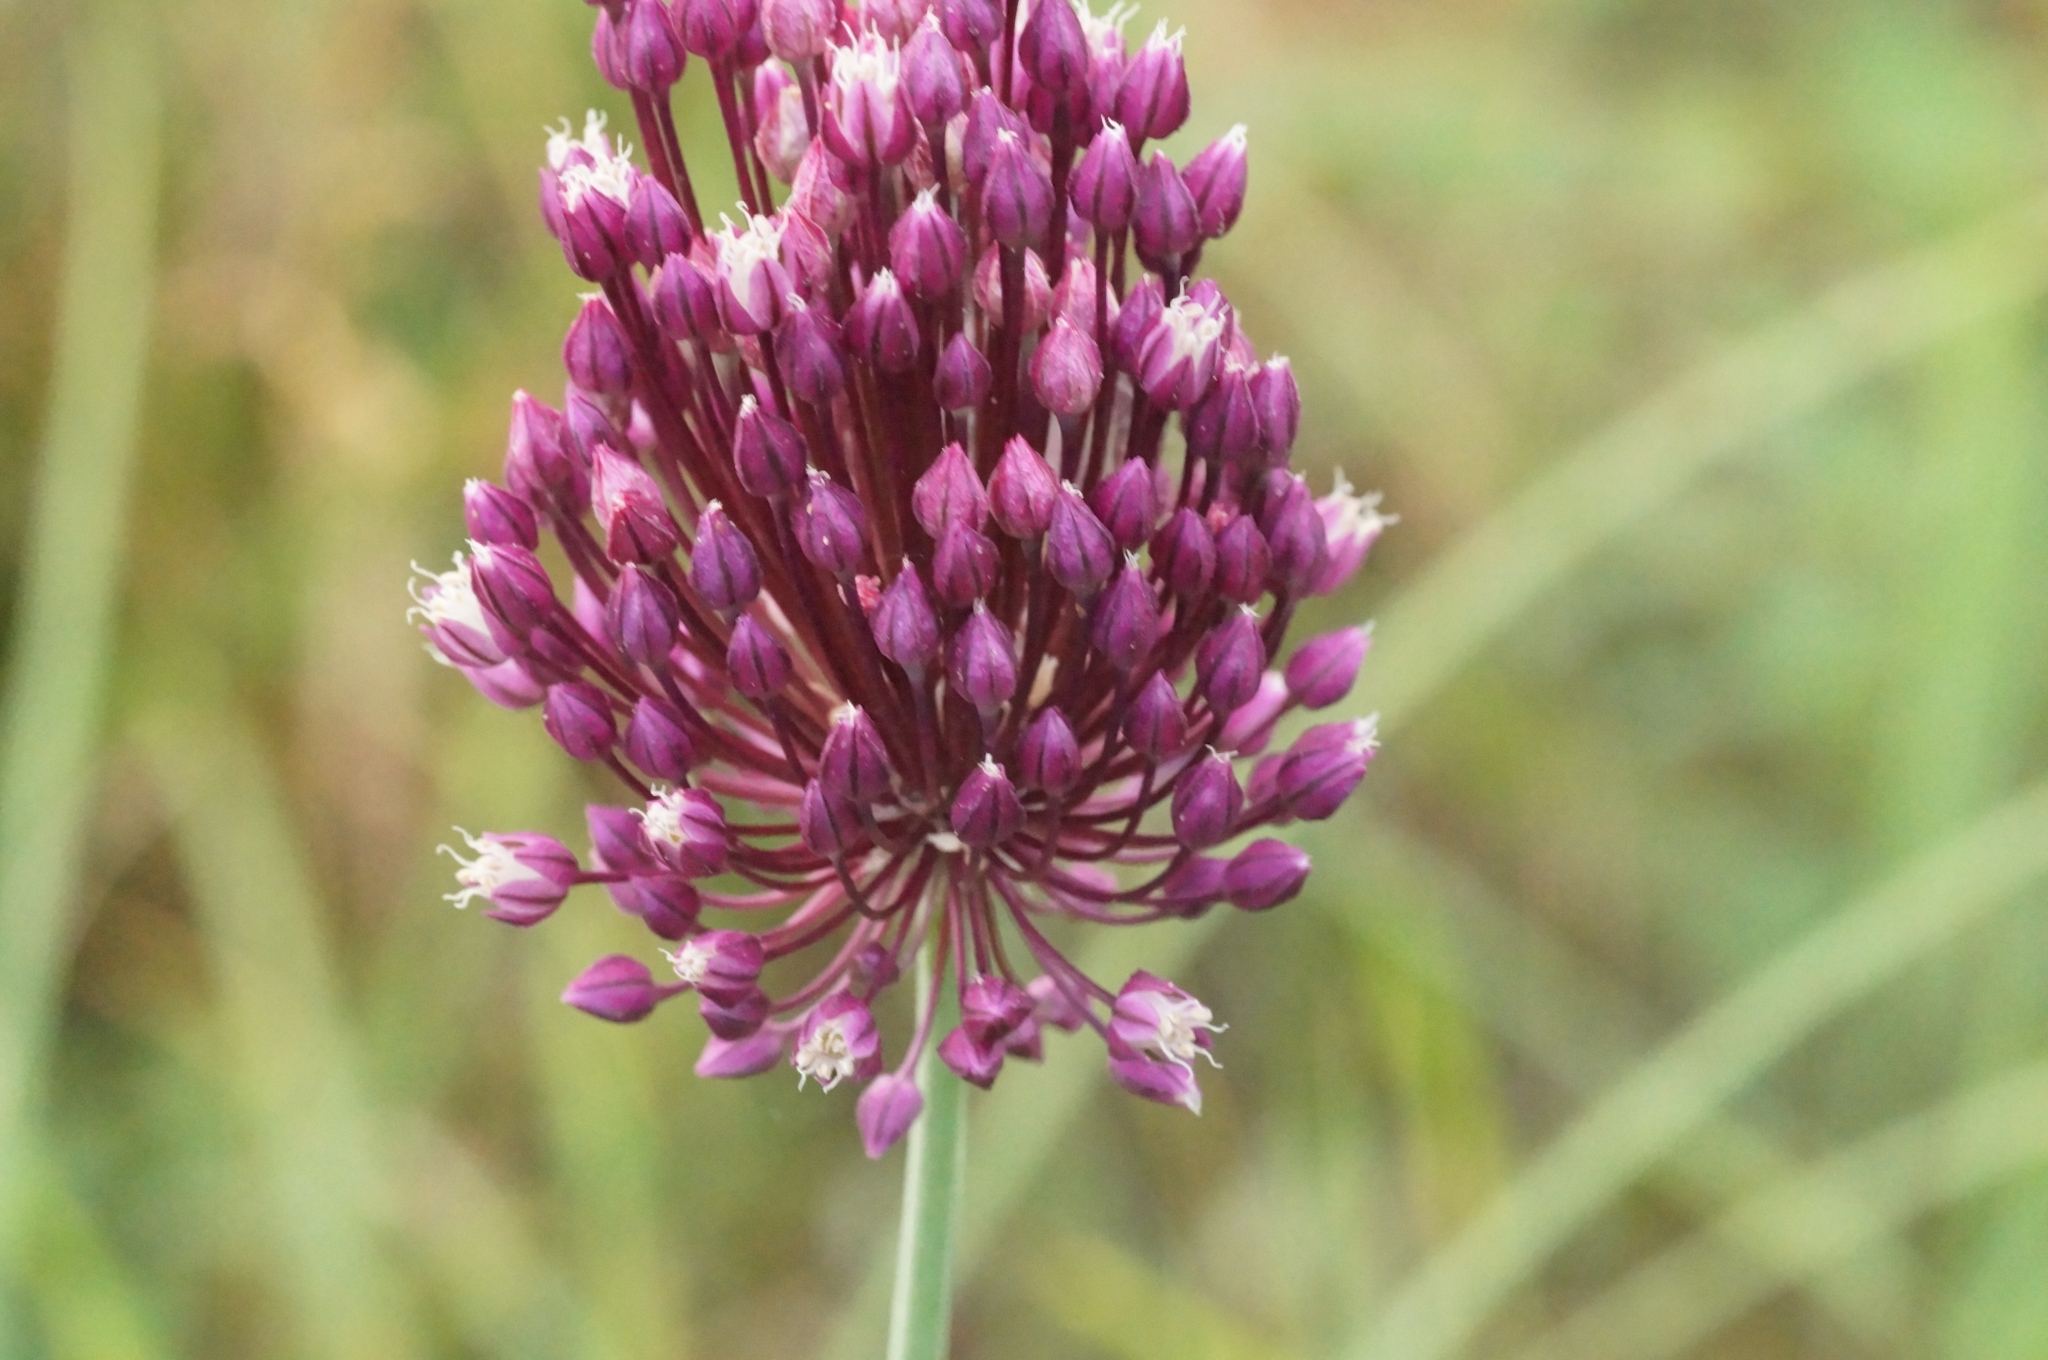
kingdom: Plantae
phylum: Tracheophyta
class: Liliopsida
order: Asparagales
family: Amaryllidaceae
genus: Allium
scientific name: Allium rotundum
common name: Sand leek
